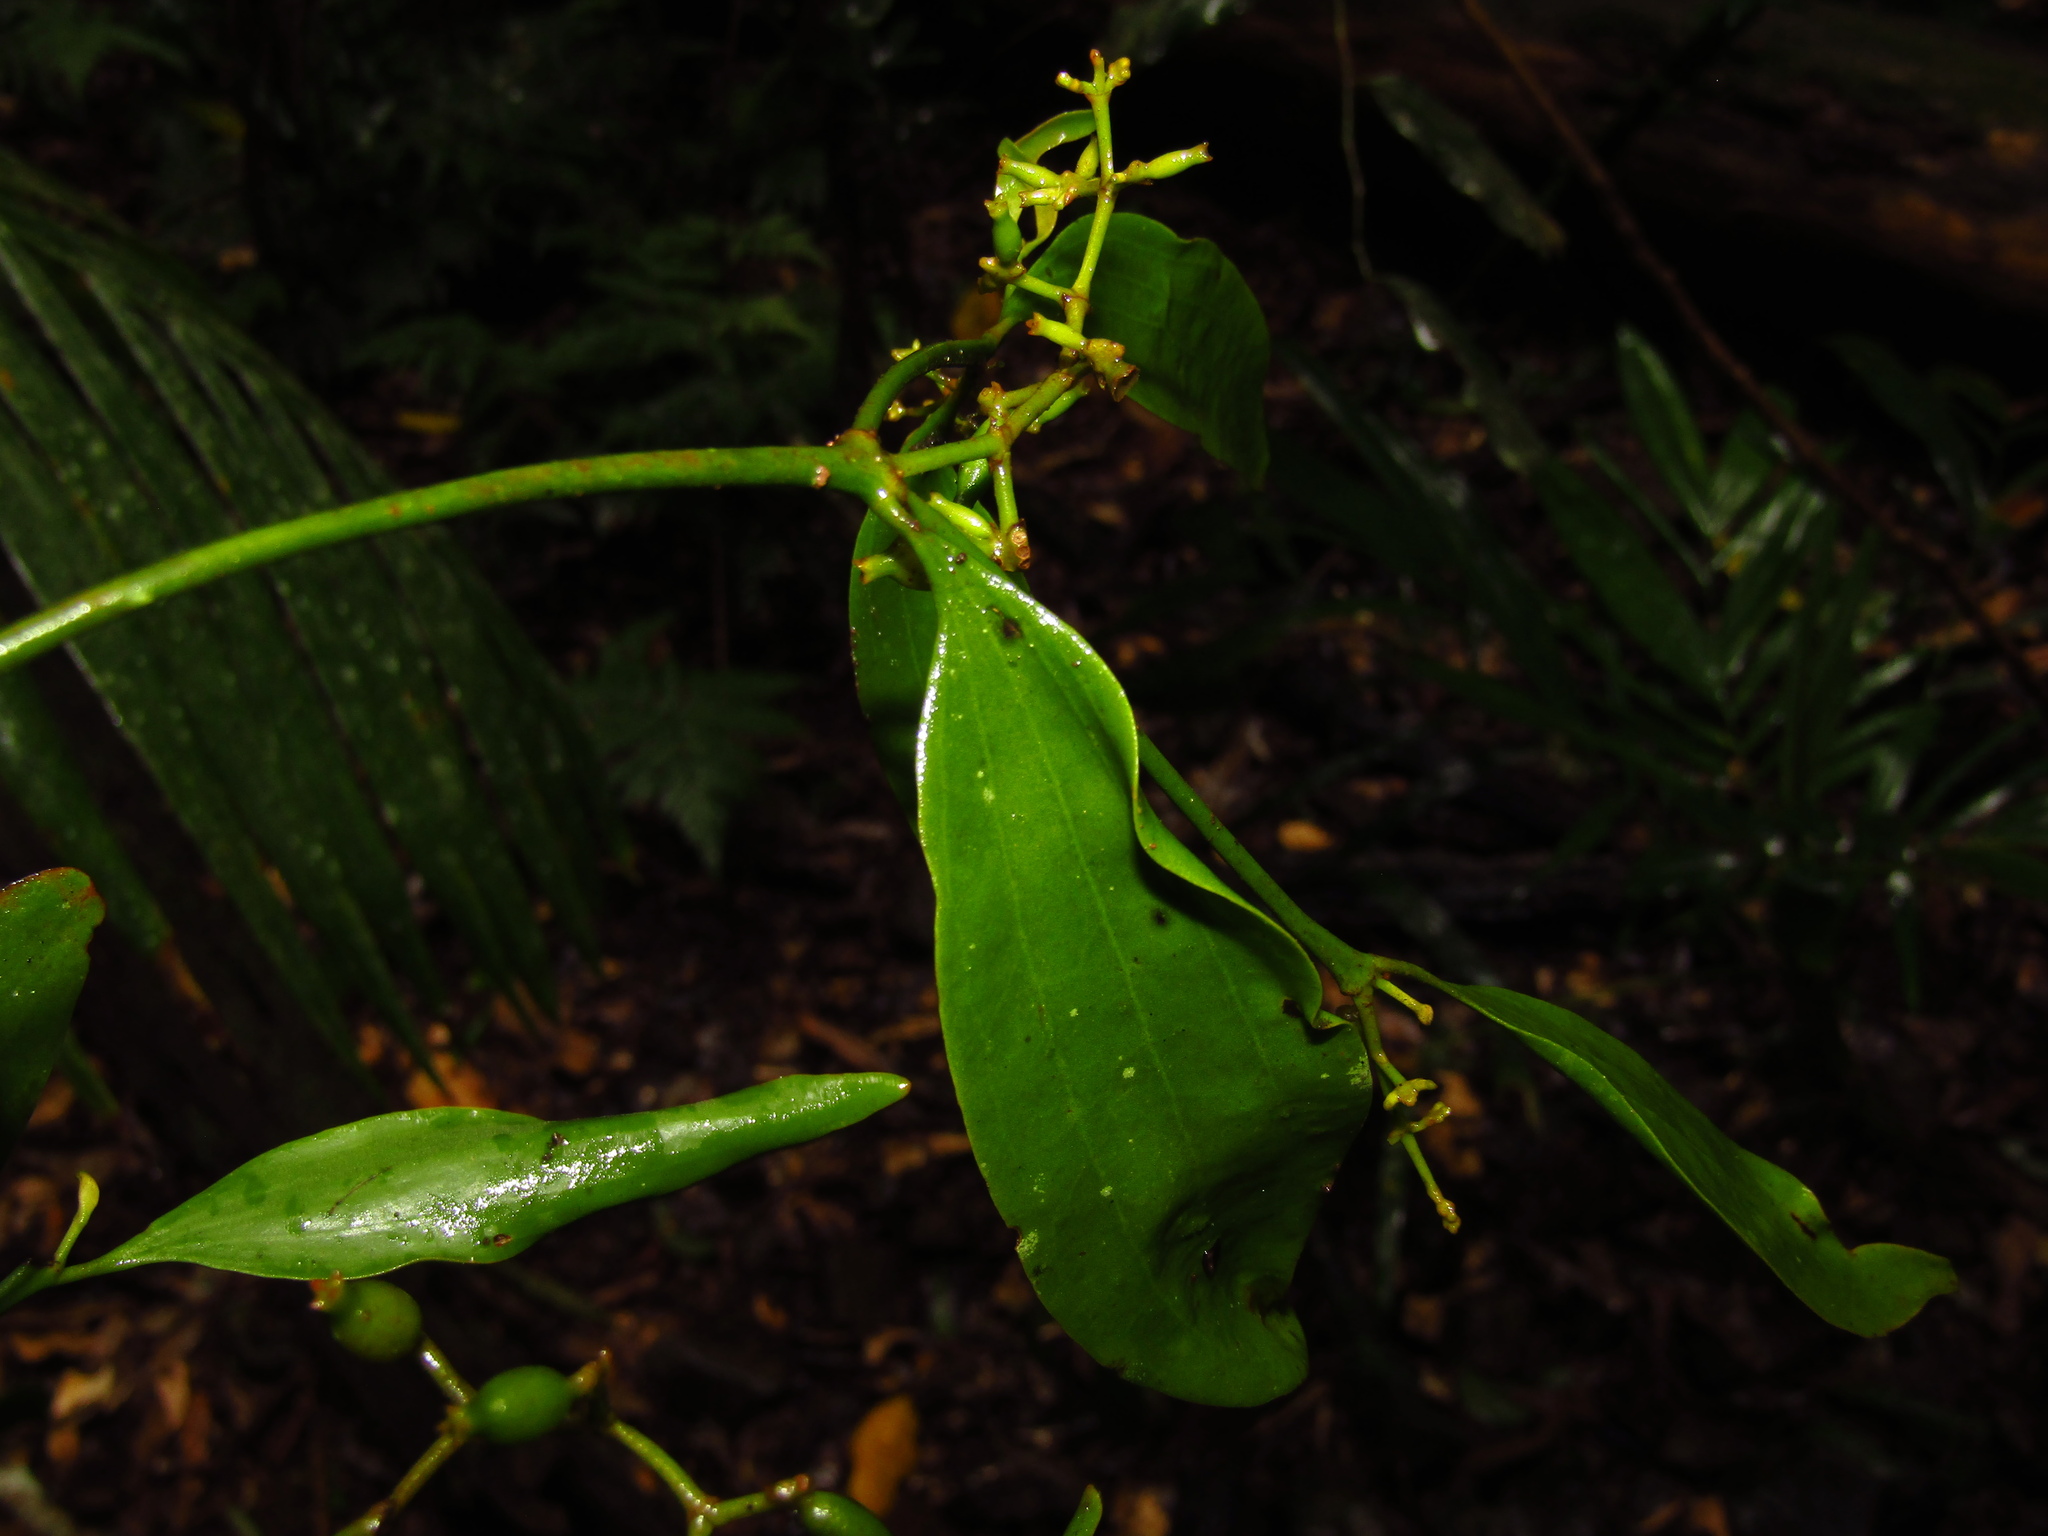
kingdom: Plantae
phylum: Tracheophyta
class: Magnoliopsida
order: Santalales
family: Viscaceae
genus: Notothixos
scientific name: Notothixos cornifolius
